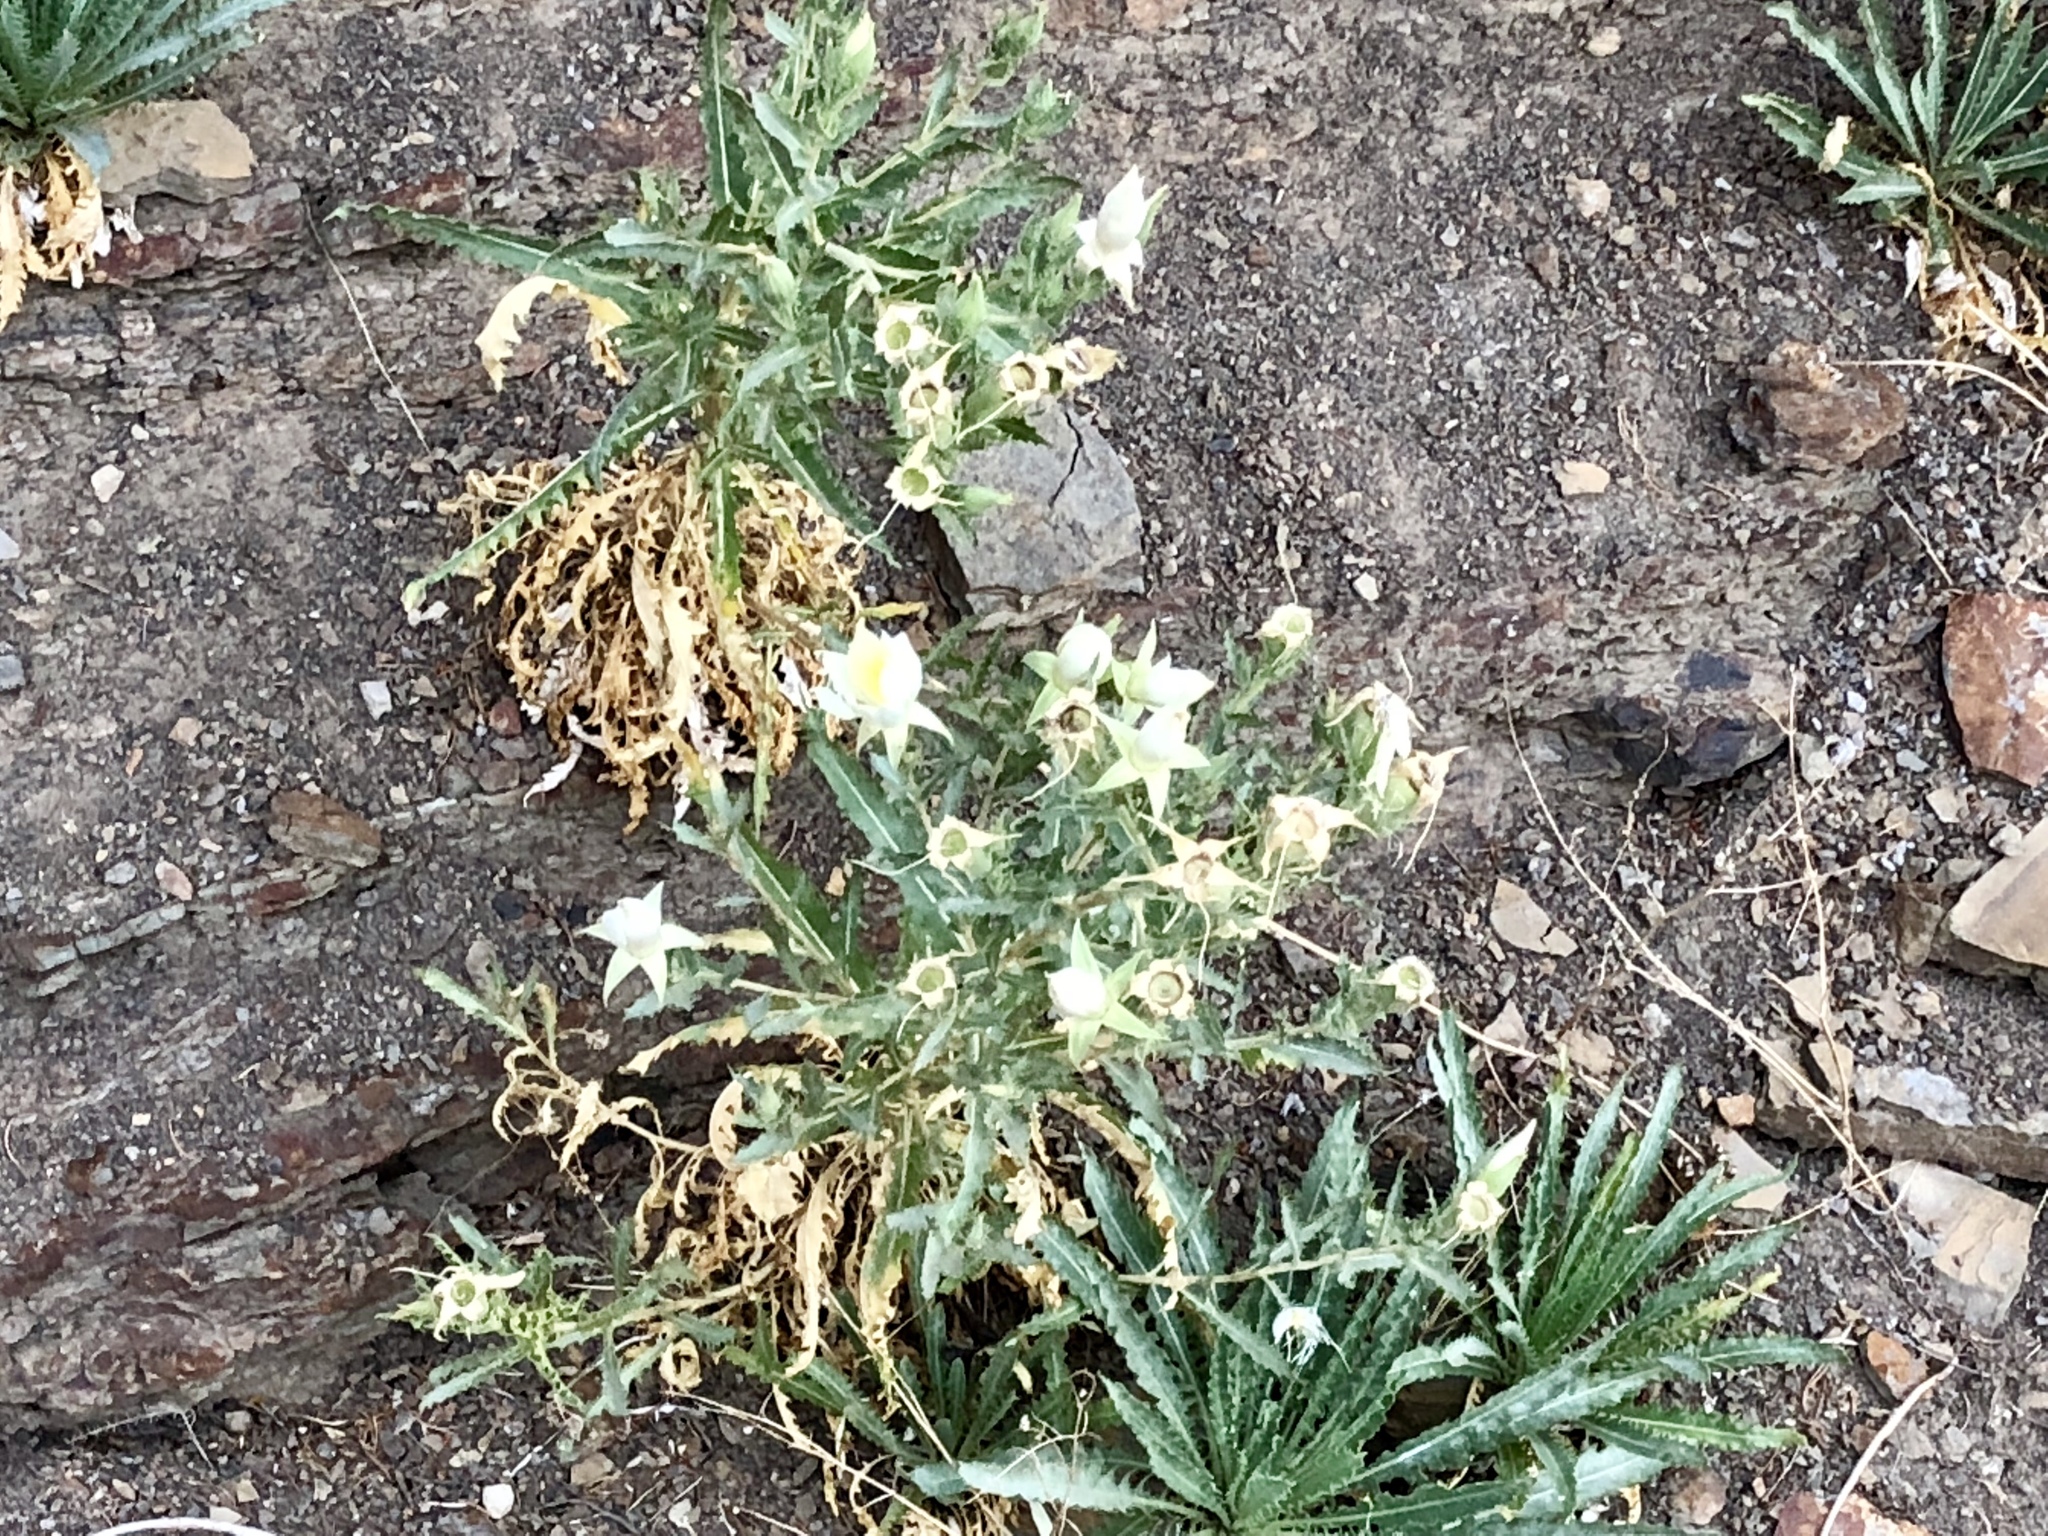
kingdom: Plantae
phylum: Tracheophyta
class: Magnoliopsida
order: Cornales
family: Loasaceae
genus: Mentzelia
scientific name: Mentzelia decapetala
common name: Gumbo-lily
